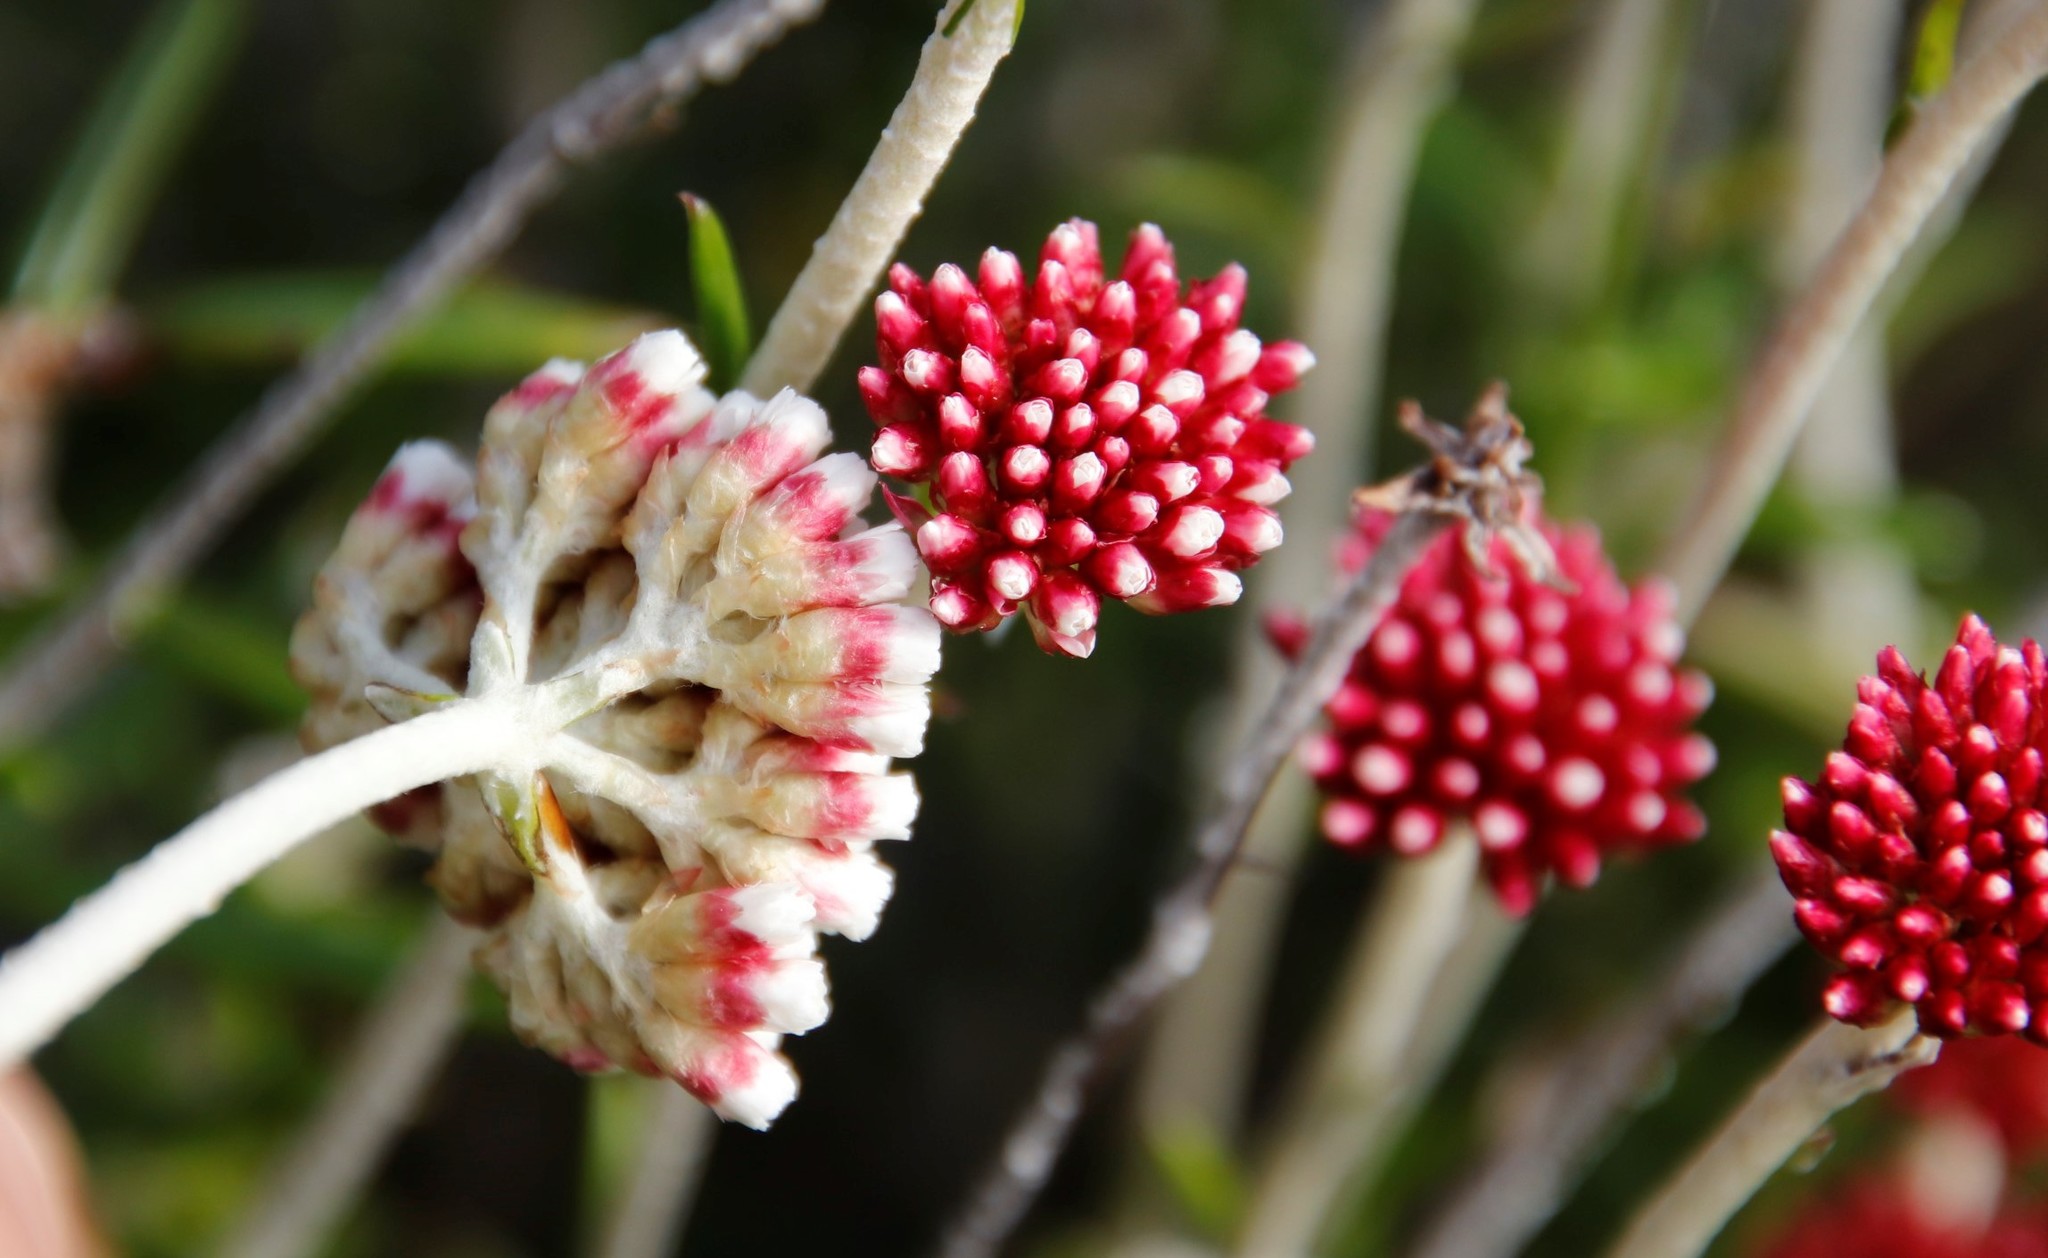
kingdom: Plantae
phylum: Tracheophyta
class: Magnoliopsida
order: Asterales
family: Asteraceae
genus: Anaxeton
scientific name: Anaxeton arborescens
